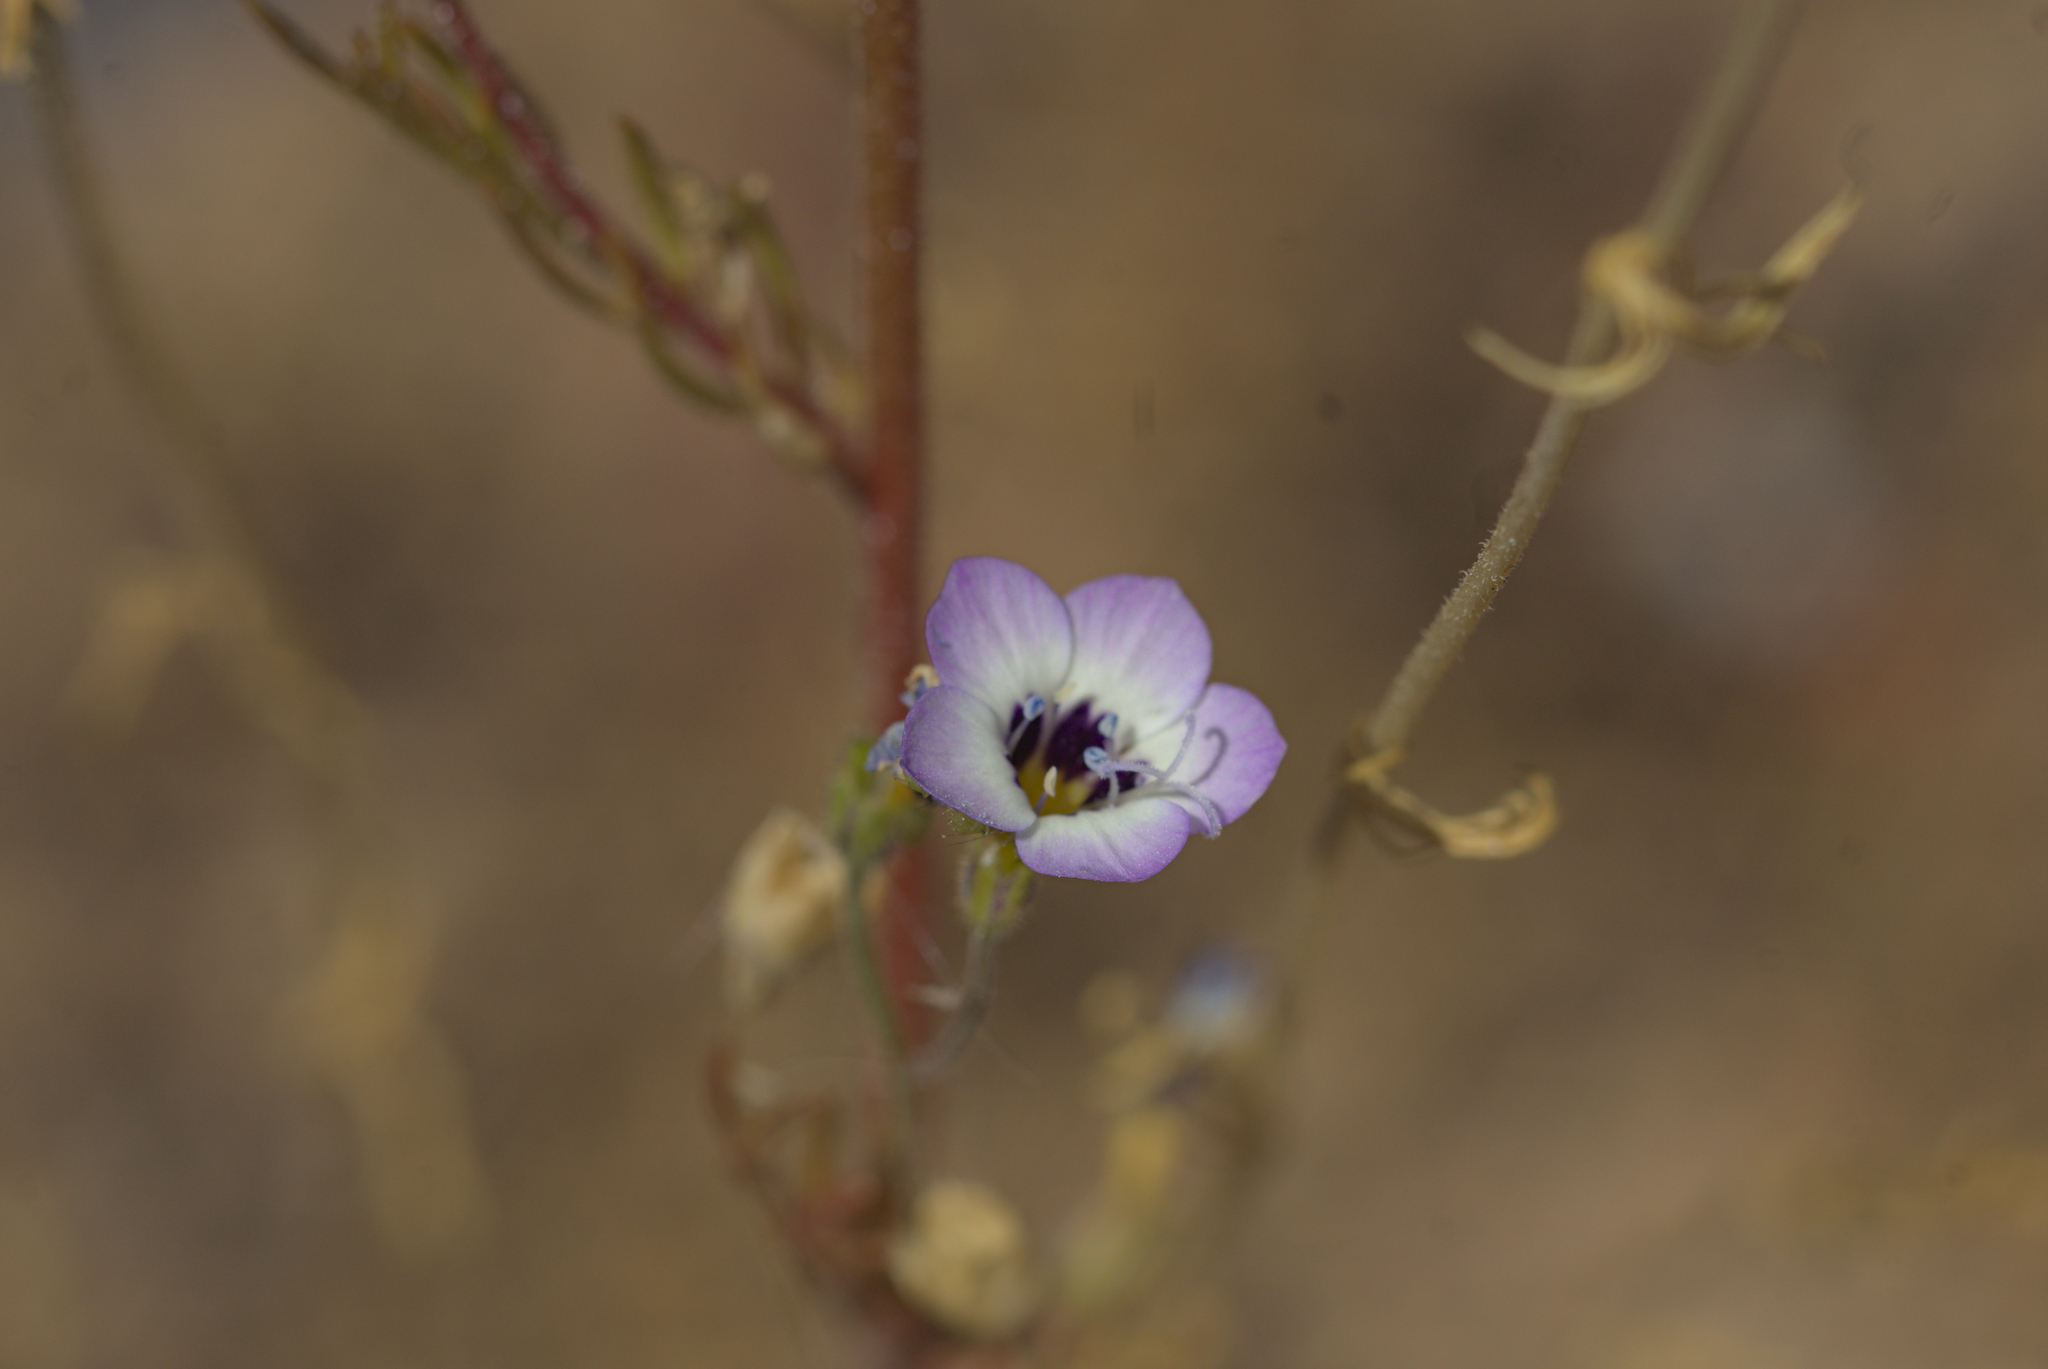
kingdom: Plantae
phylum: Tracheophyta
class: Magnoliopsida
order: Ericales
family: Polemoniaceae
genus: Gilia
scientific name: Gilia tricolor
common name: Bird's-eyes
